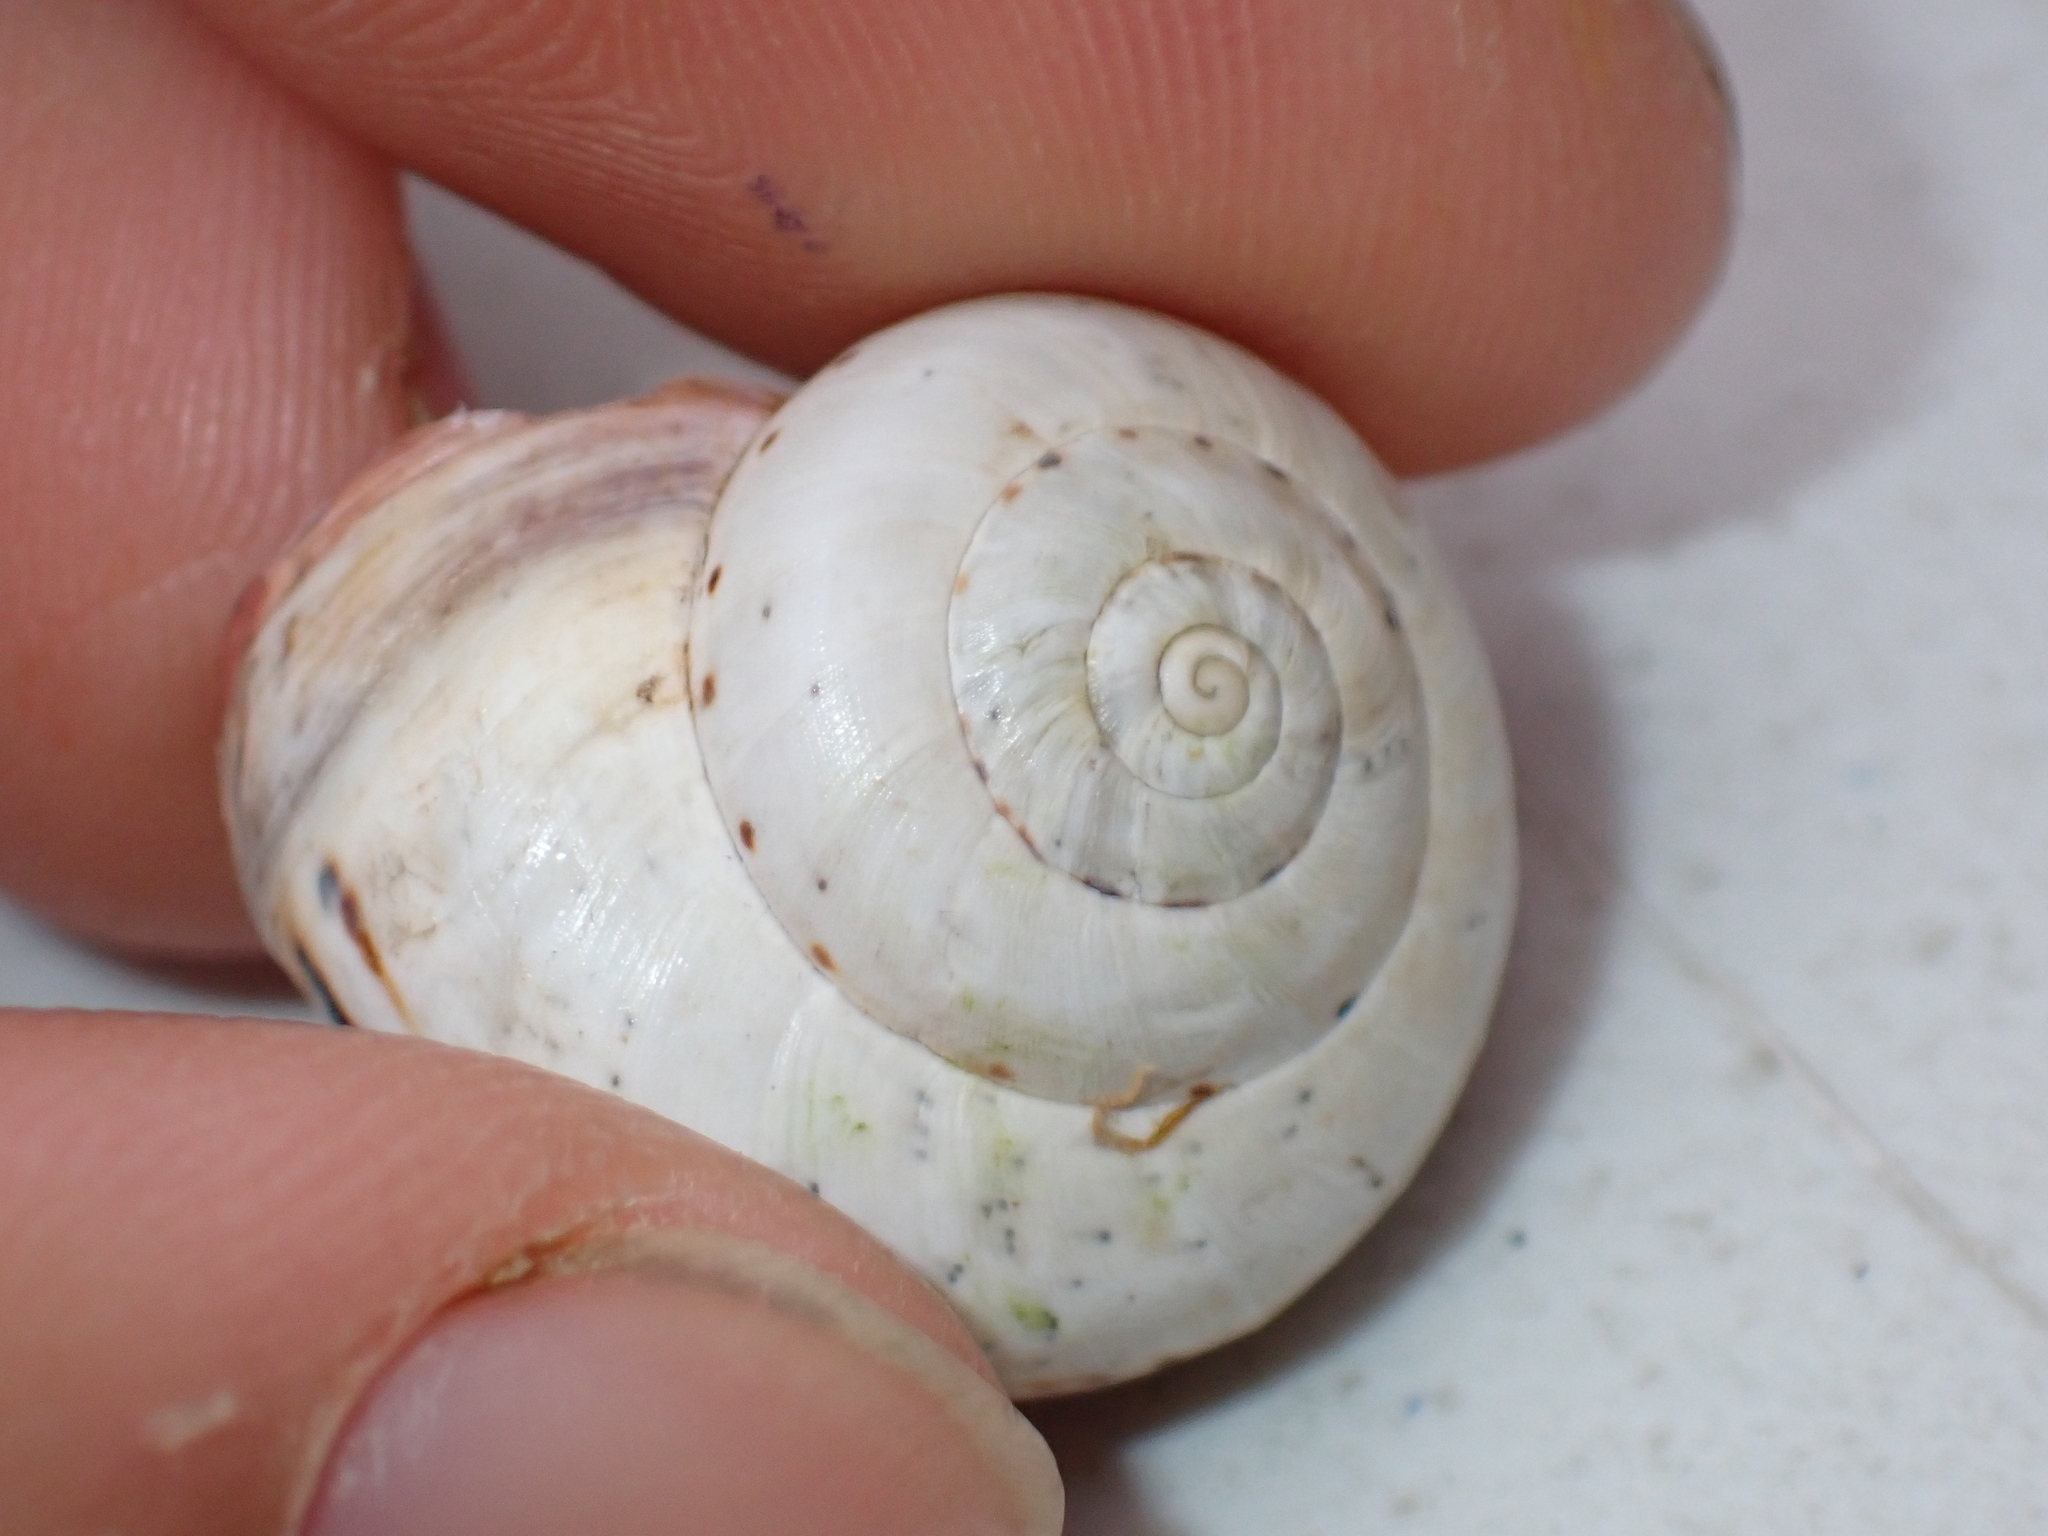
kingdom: Animalia
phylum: Mollusca
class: Gastropoda
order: Stylommatophora
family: Helicidae
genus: Theba
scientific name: Theba pisana
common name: White snail
